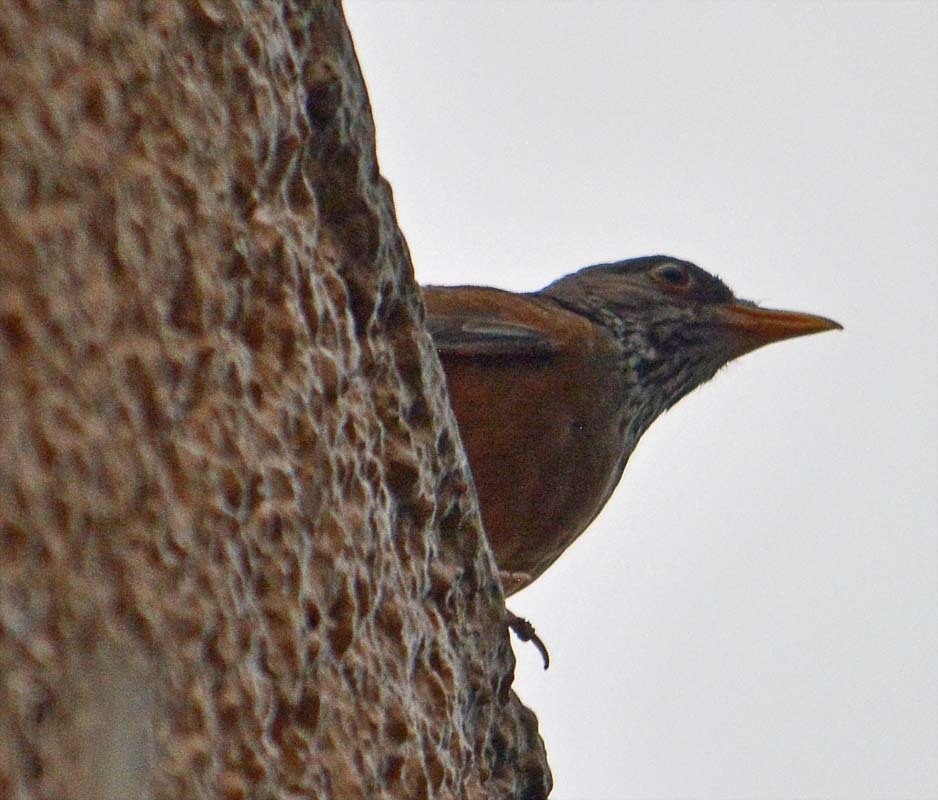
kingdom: Animalia
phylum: Chordata
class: Aves
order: Passeriformes
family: Turdidae
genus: Turdus
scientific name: Turdus rufopalliatus
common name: Rufous-backed robin
